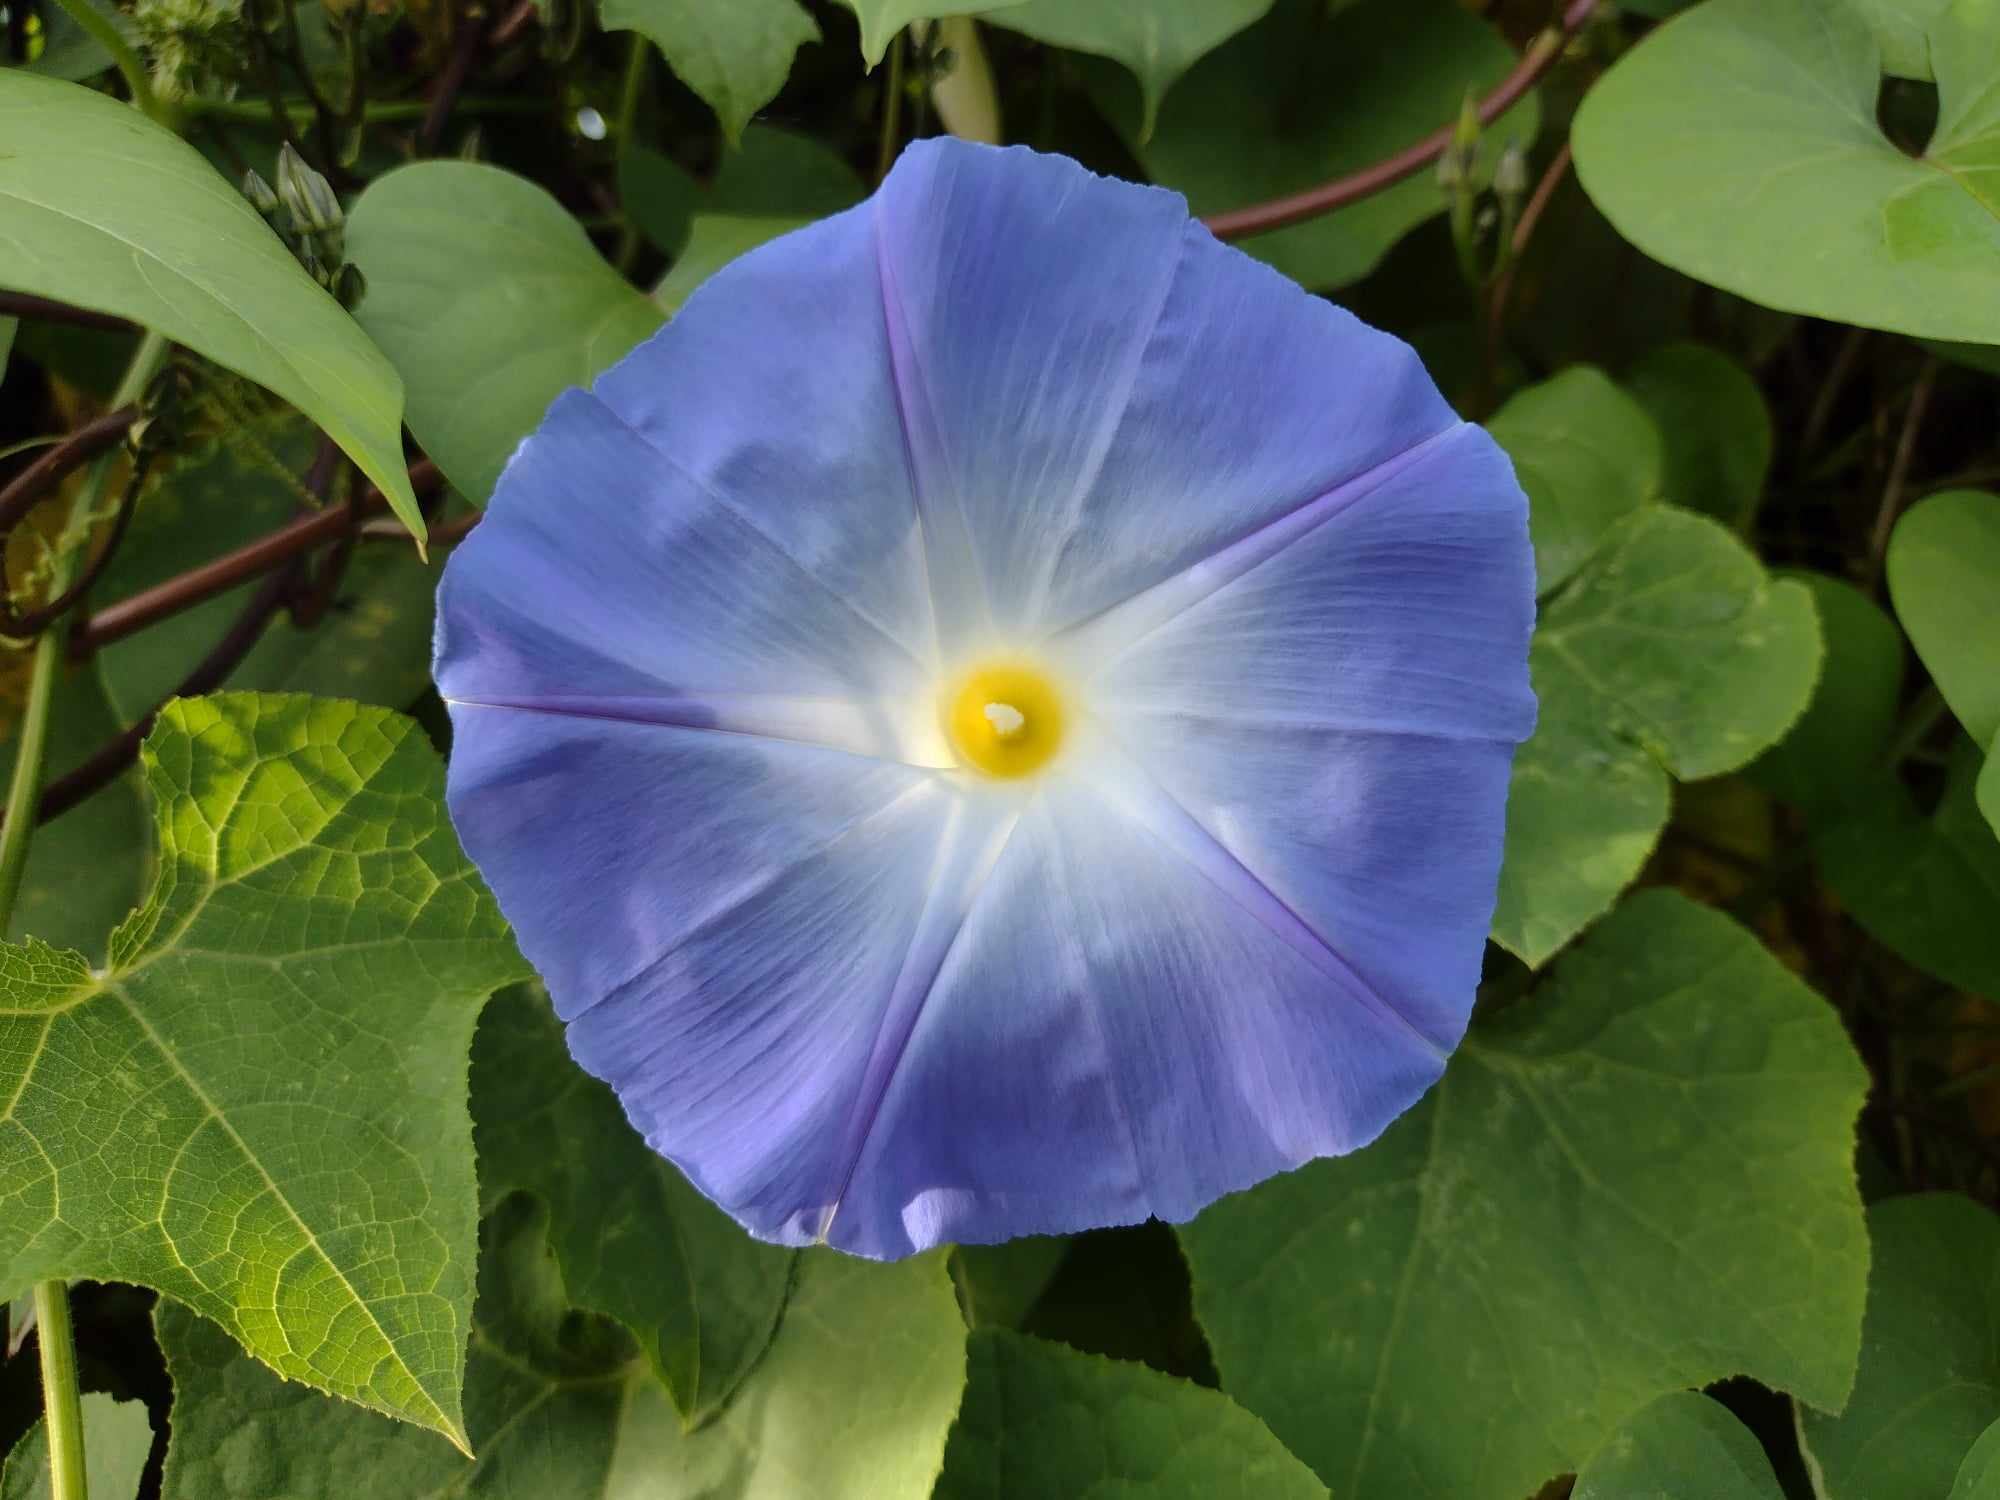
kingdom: Plantae
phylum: Tracheophyta
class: Magnoliopsida
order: Solanales
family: Convolvulaceae
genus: Ipomoea
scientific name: Ipomoea tricolor
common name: Morning-glory
